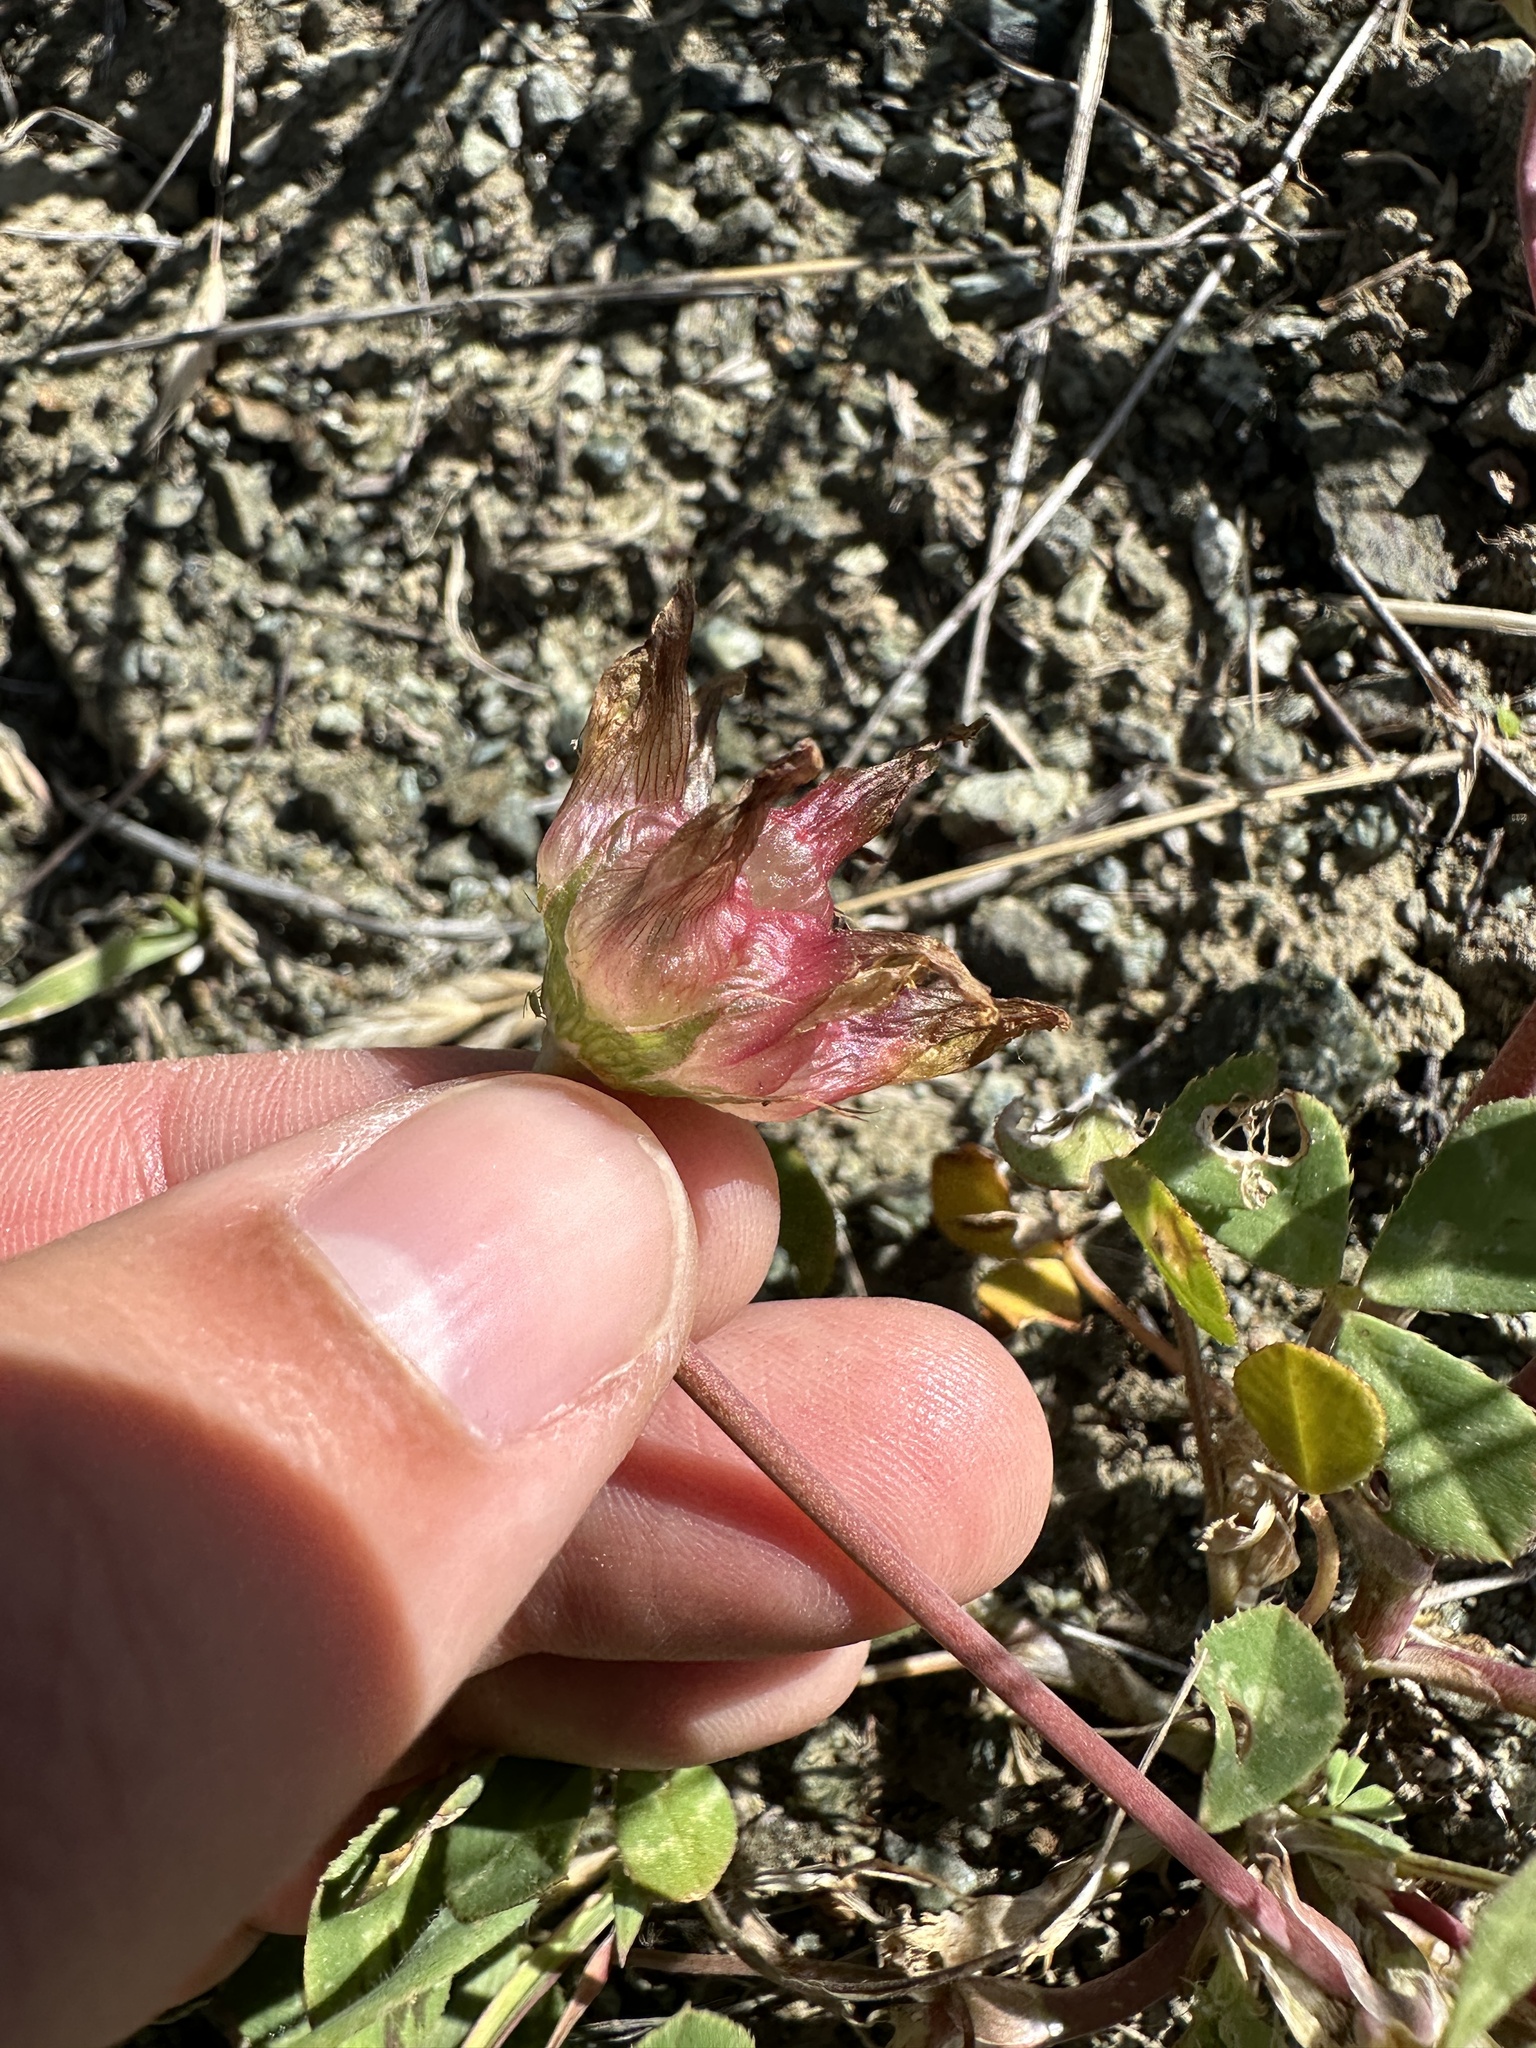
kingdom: Plantae
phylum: Tracheophyta
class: Magnoliopsida
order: Fabales
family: Fabaceae
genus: Trifolium
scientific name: Trifolium fucatum
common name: Puff clover
